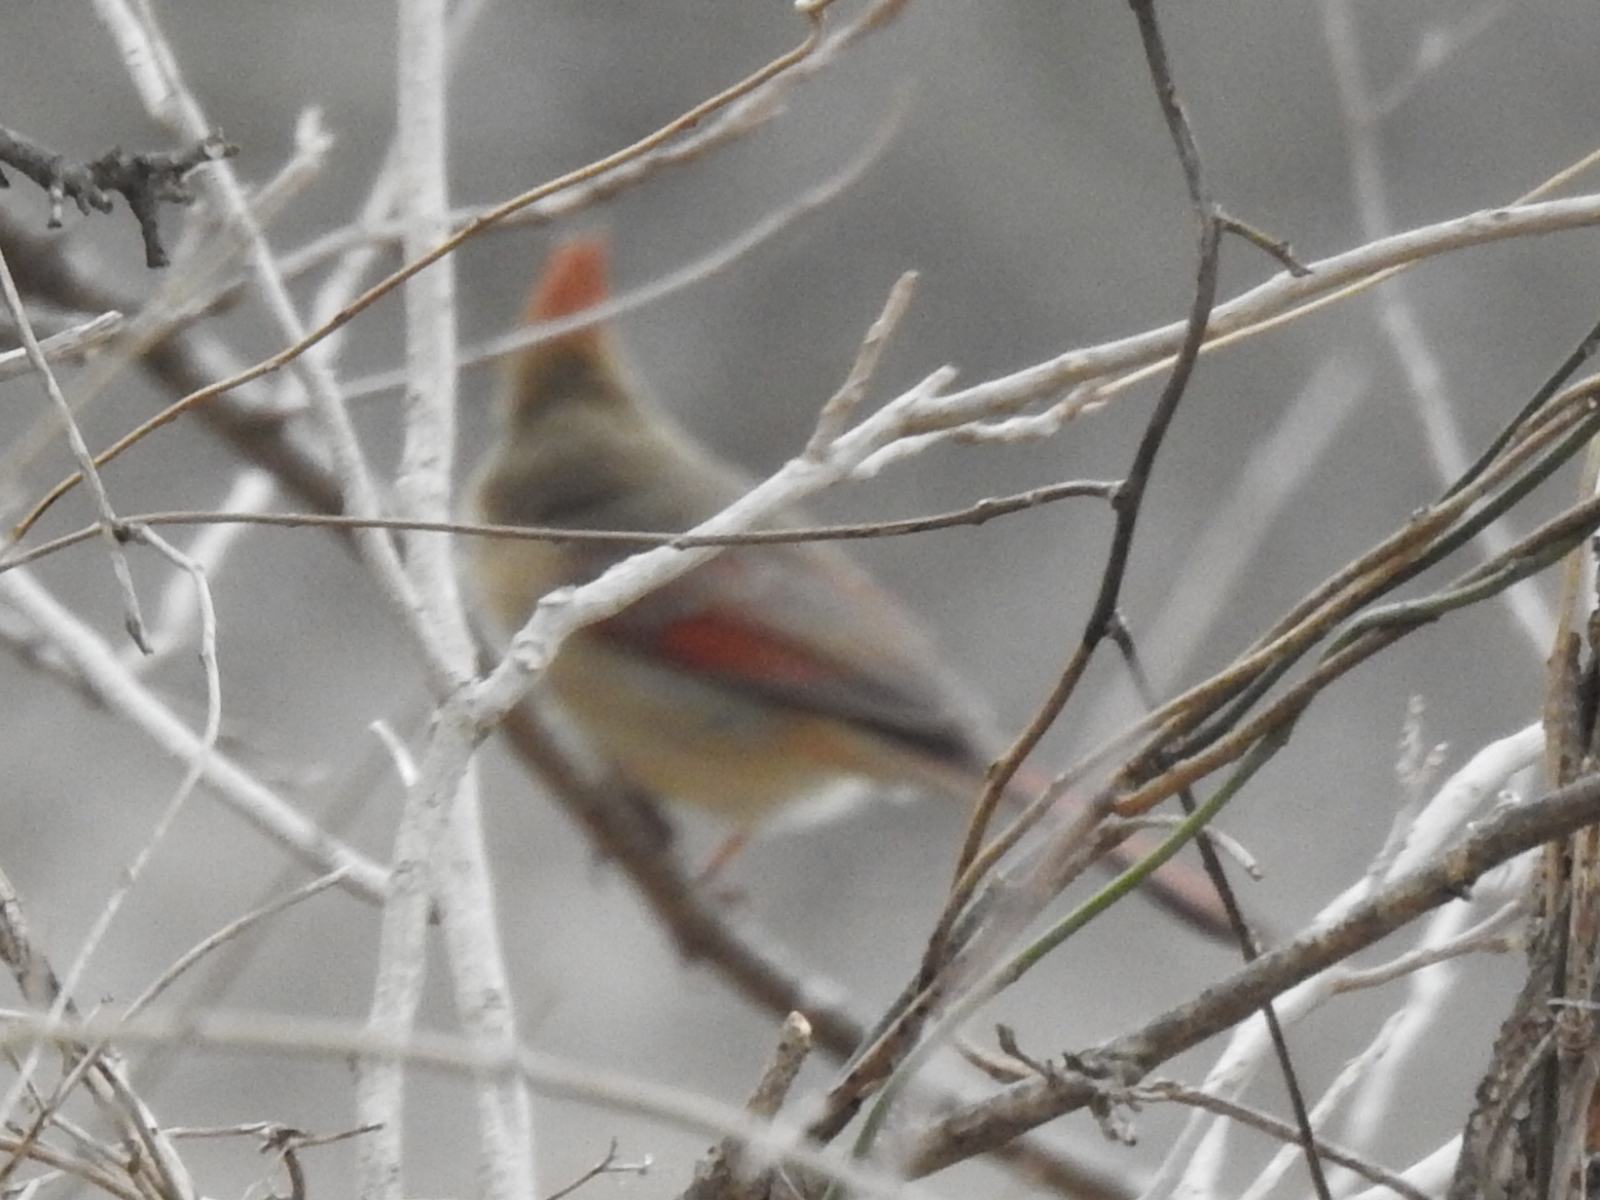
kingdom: Animalia
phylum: Chordata
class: Aves
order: Passeriformes
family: Cardinalidae
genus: Cardinalis
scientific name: Cardinalis cardinalis
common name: Northern cardinal
